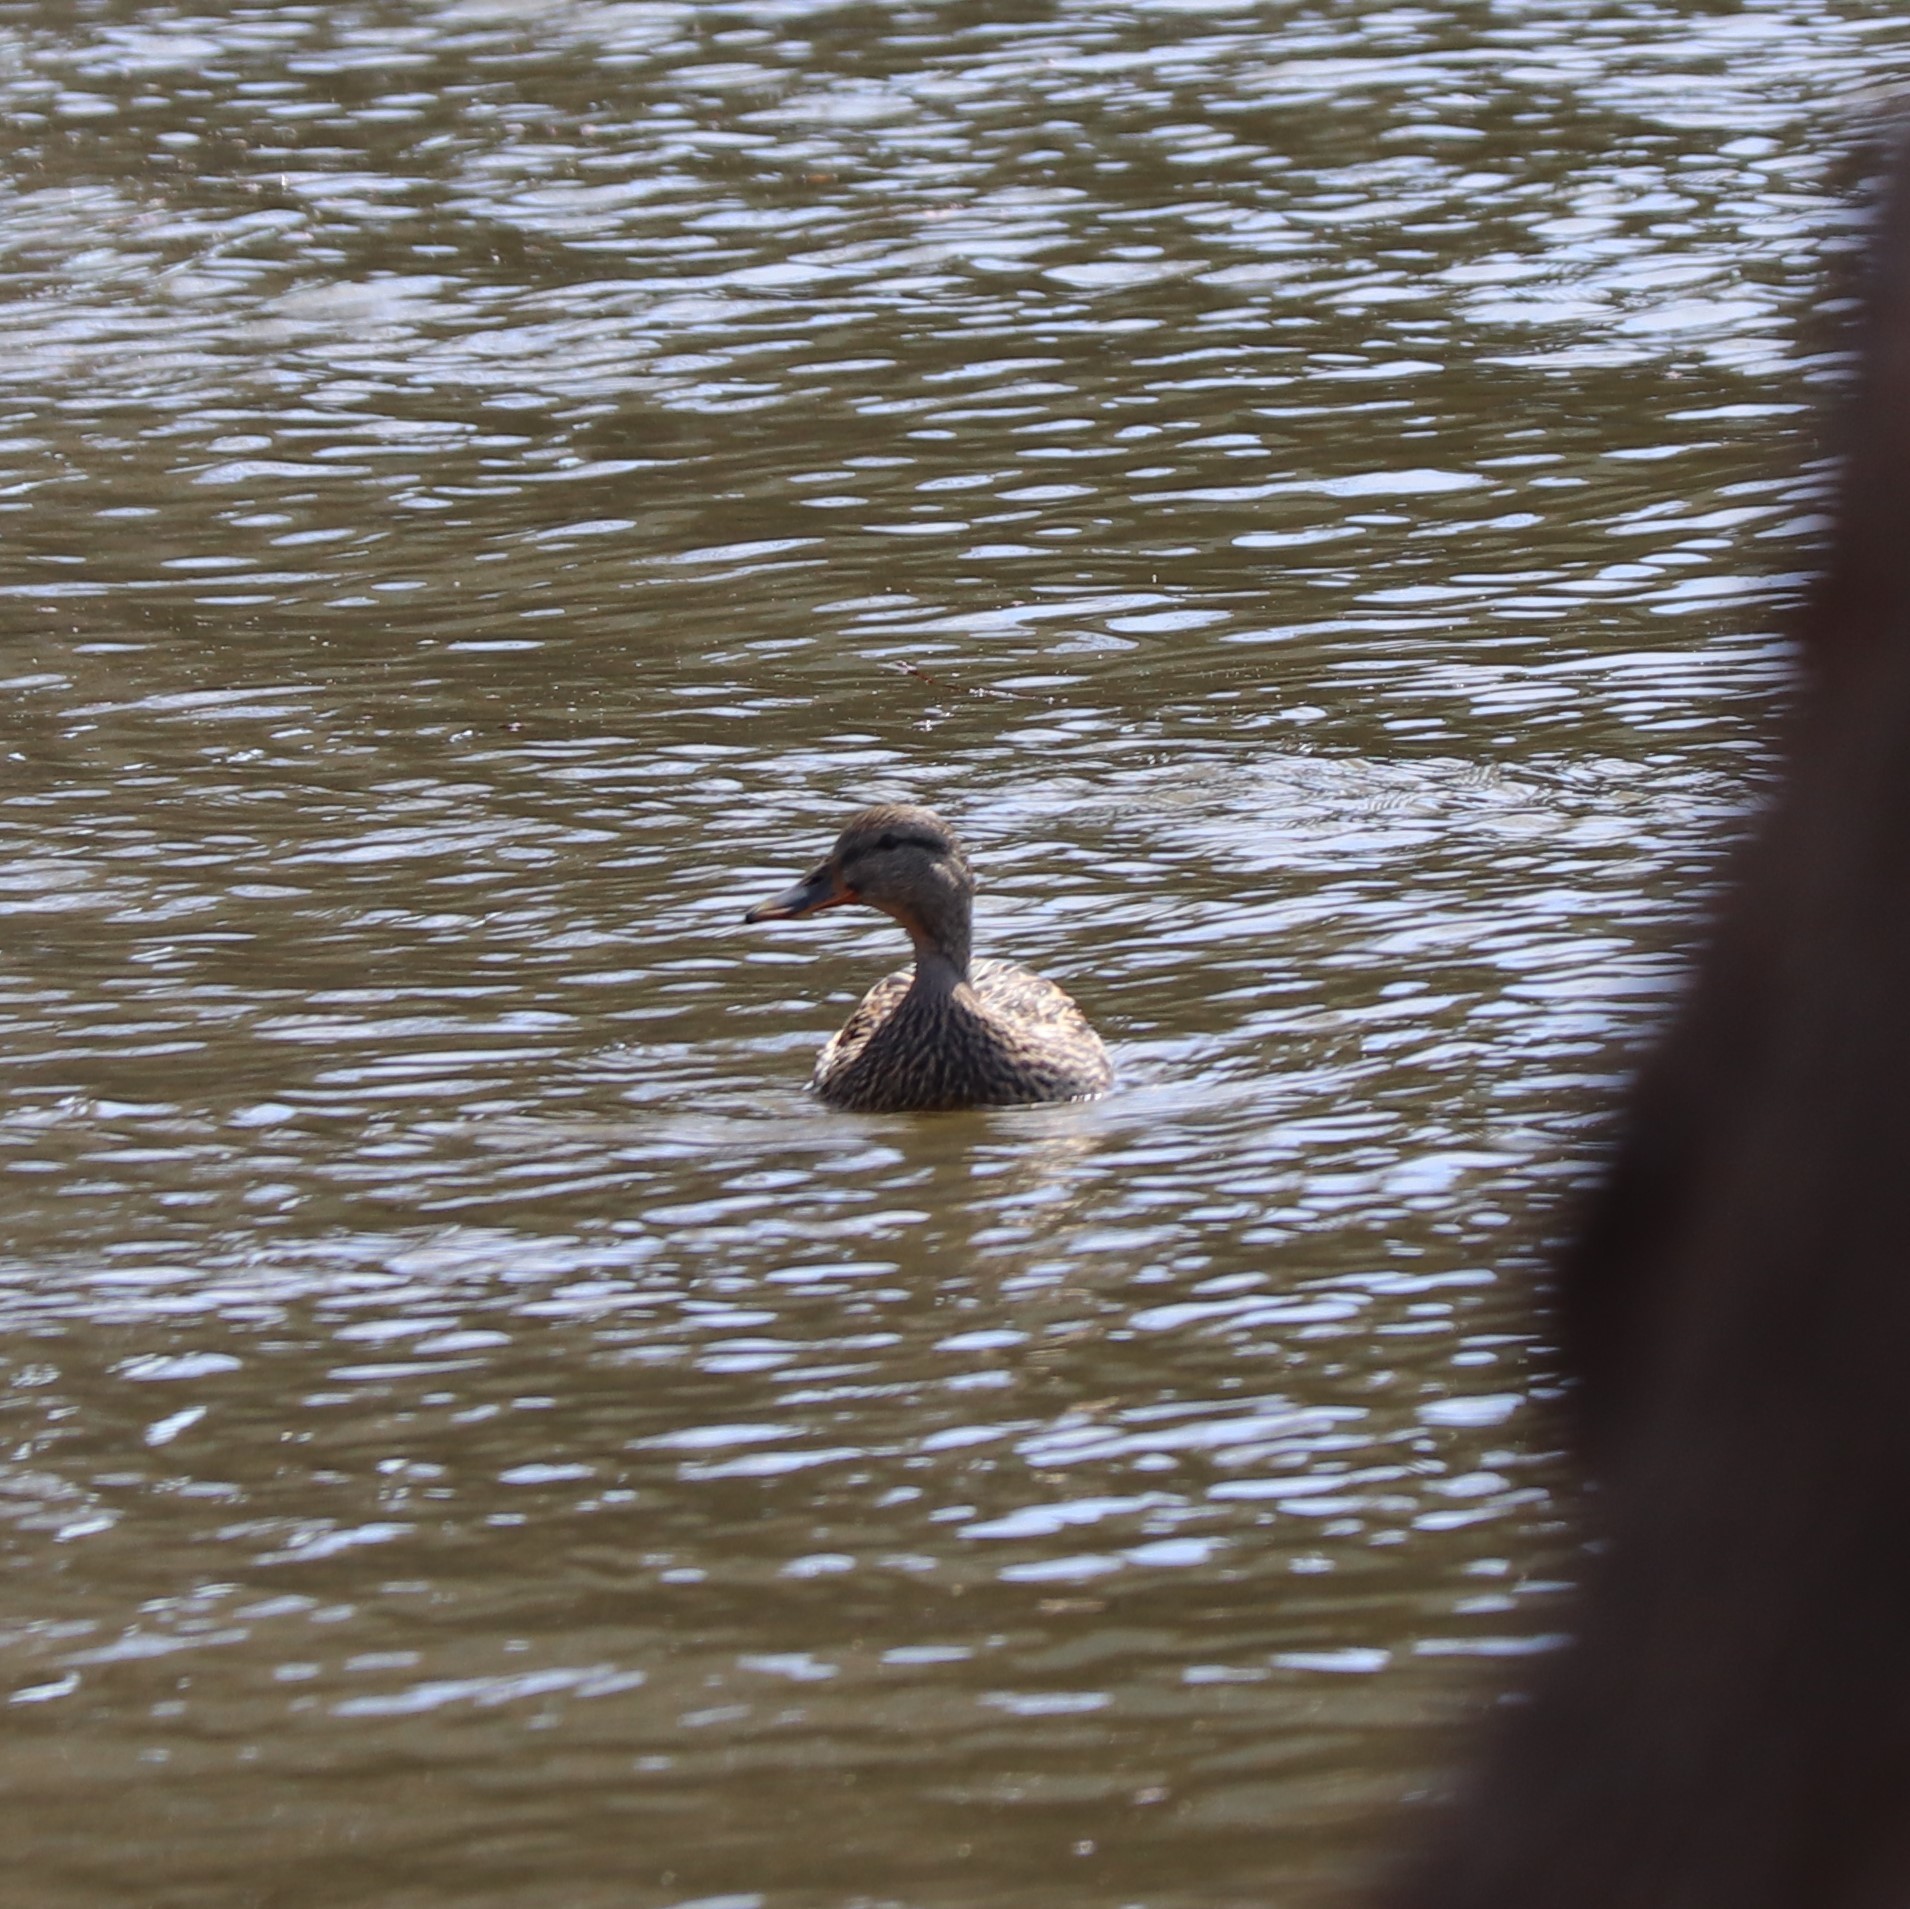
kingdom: Animalia
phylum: Chordata
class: Aves
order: Anseriformes
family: Anatidae
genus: Anas
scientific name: Anas platyrhynchos
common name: Mallard
